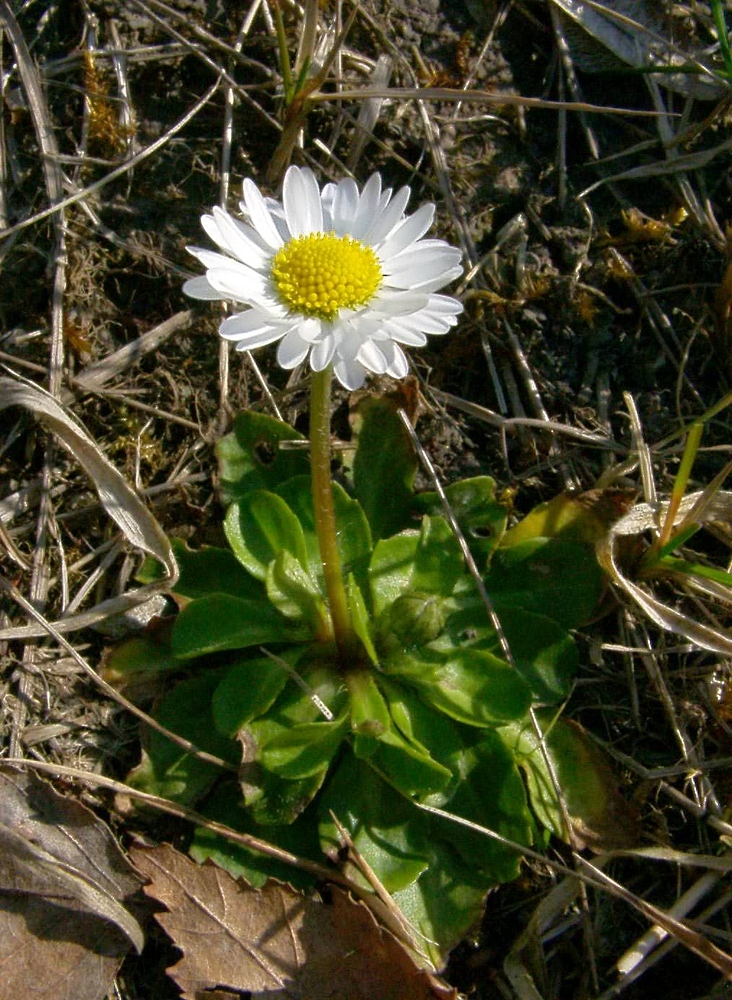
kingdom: Plantae
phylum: Tracheophyta
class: Magnoliopsida
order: Asterales
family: Asteraceae
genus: Bellis
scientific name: Bellis perennis
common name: Lawndaisy
